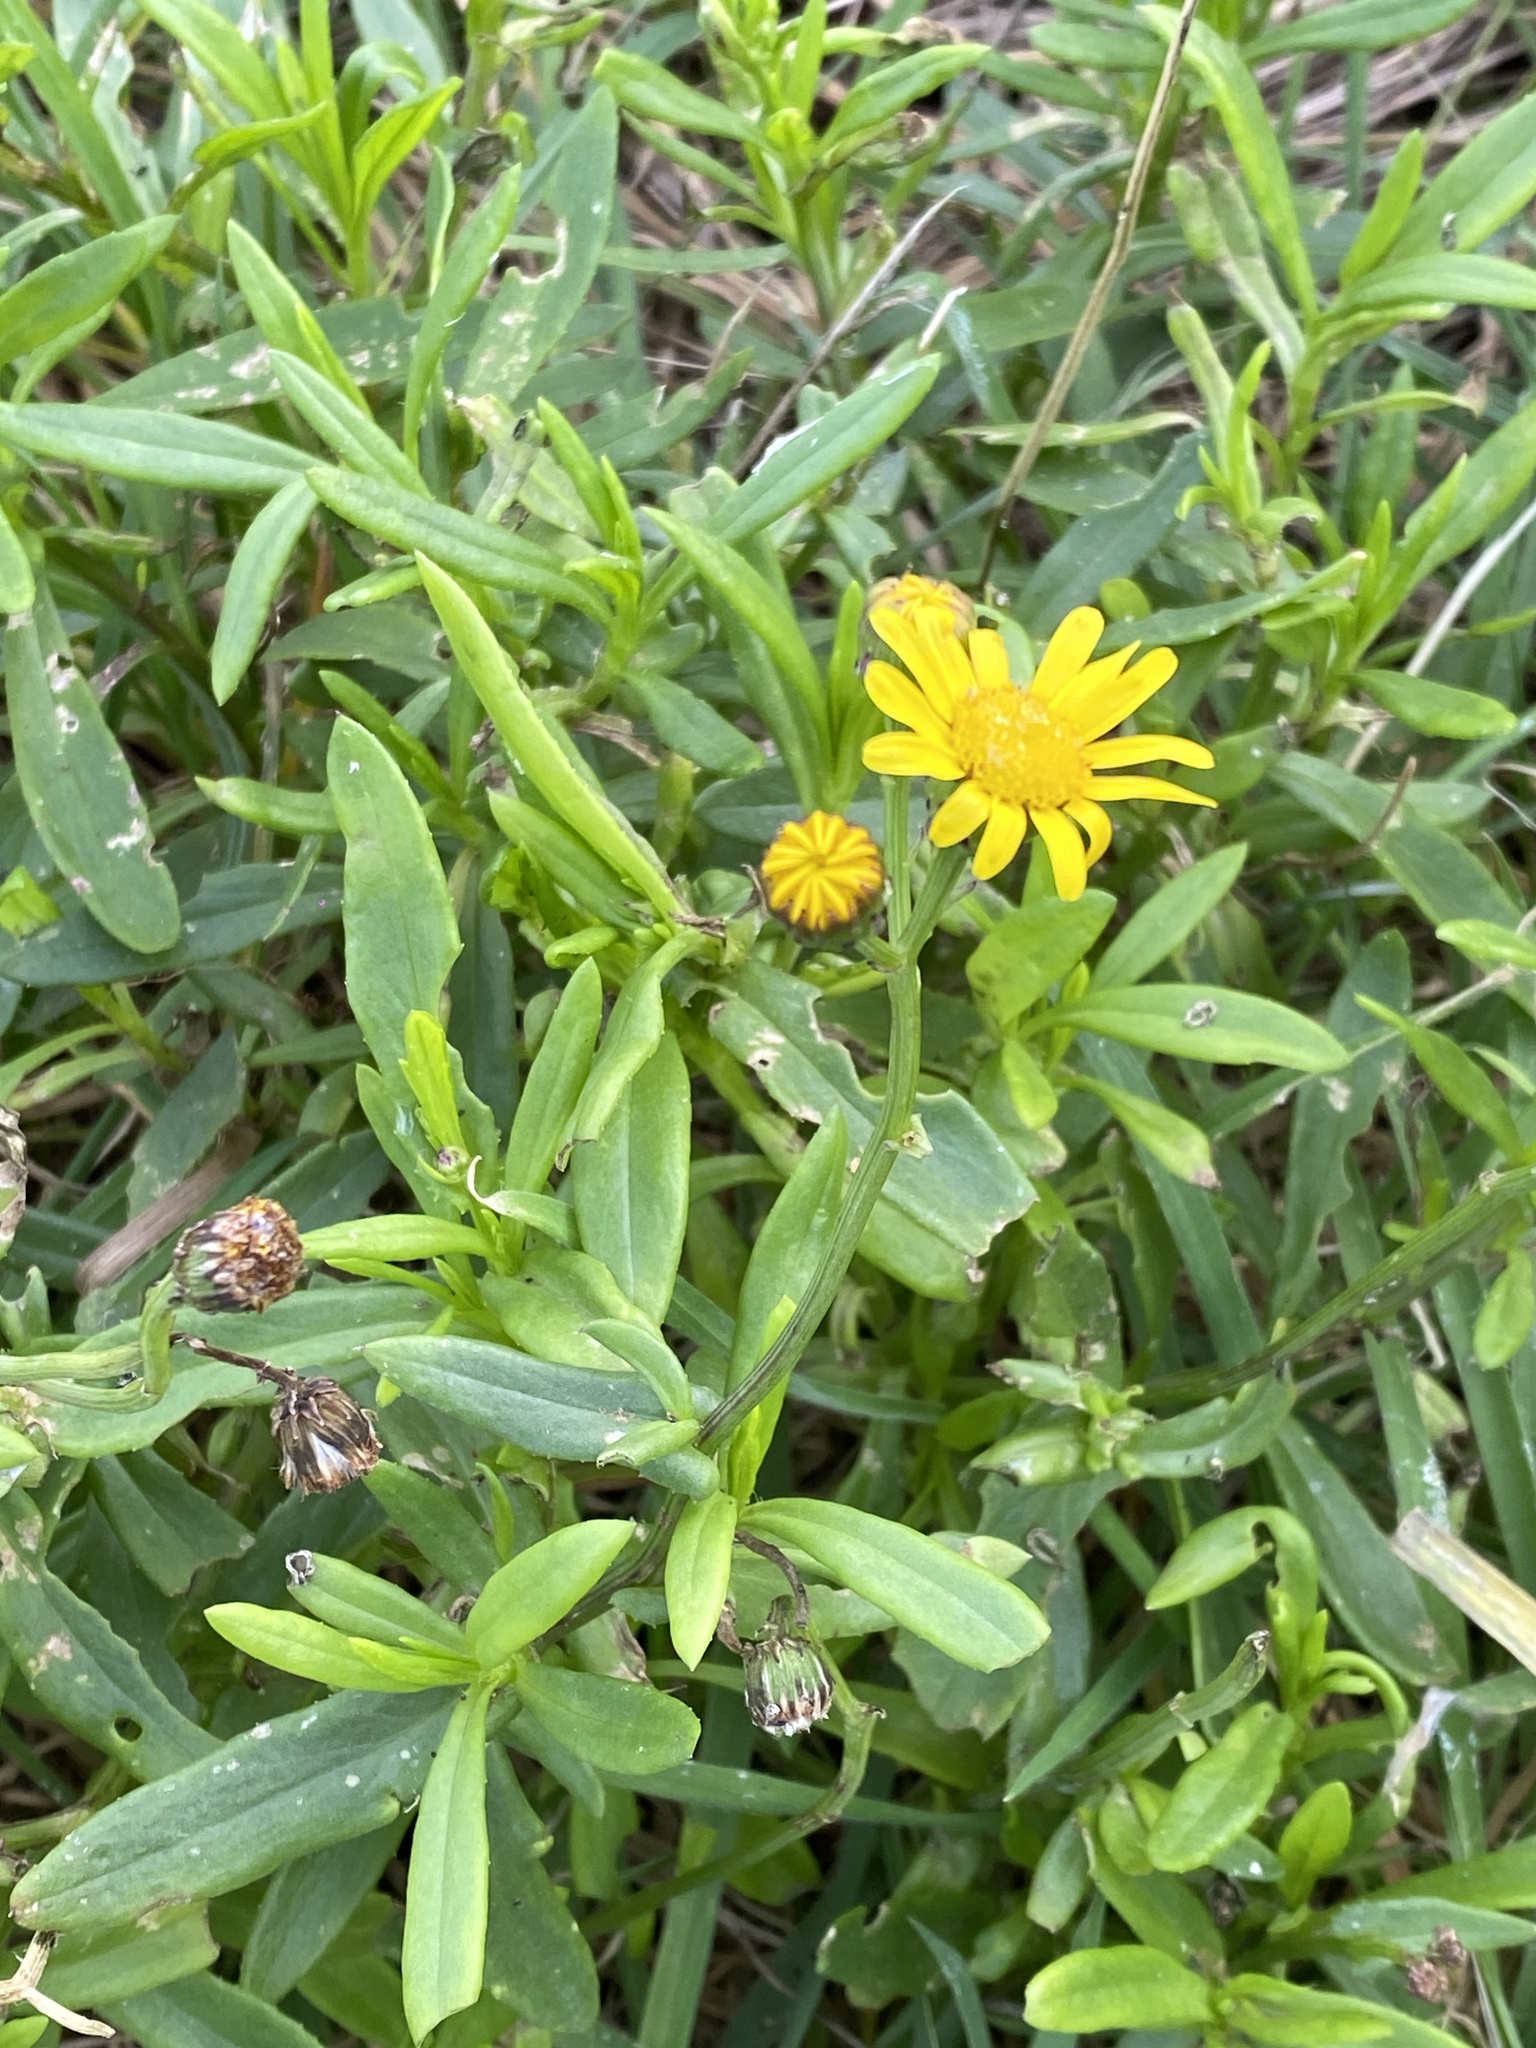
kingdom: Plantae
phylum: Tracheophyta
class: Magnoliopsida
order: Asterales
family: Asteraceae
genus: Senecio
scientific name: Senecio skirrhodon
